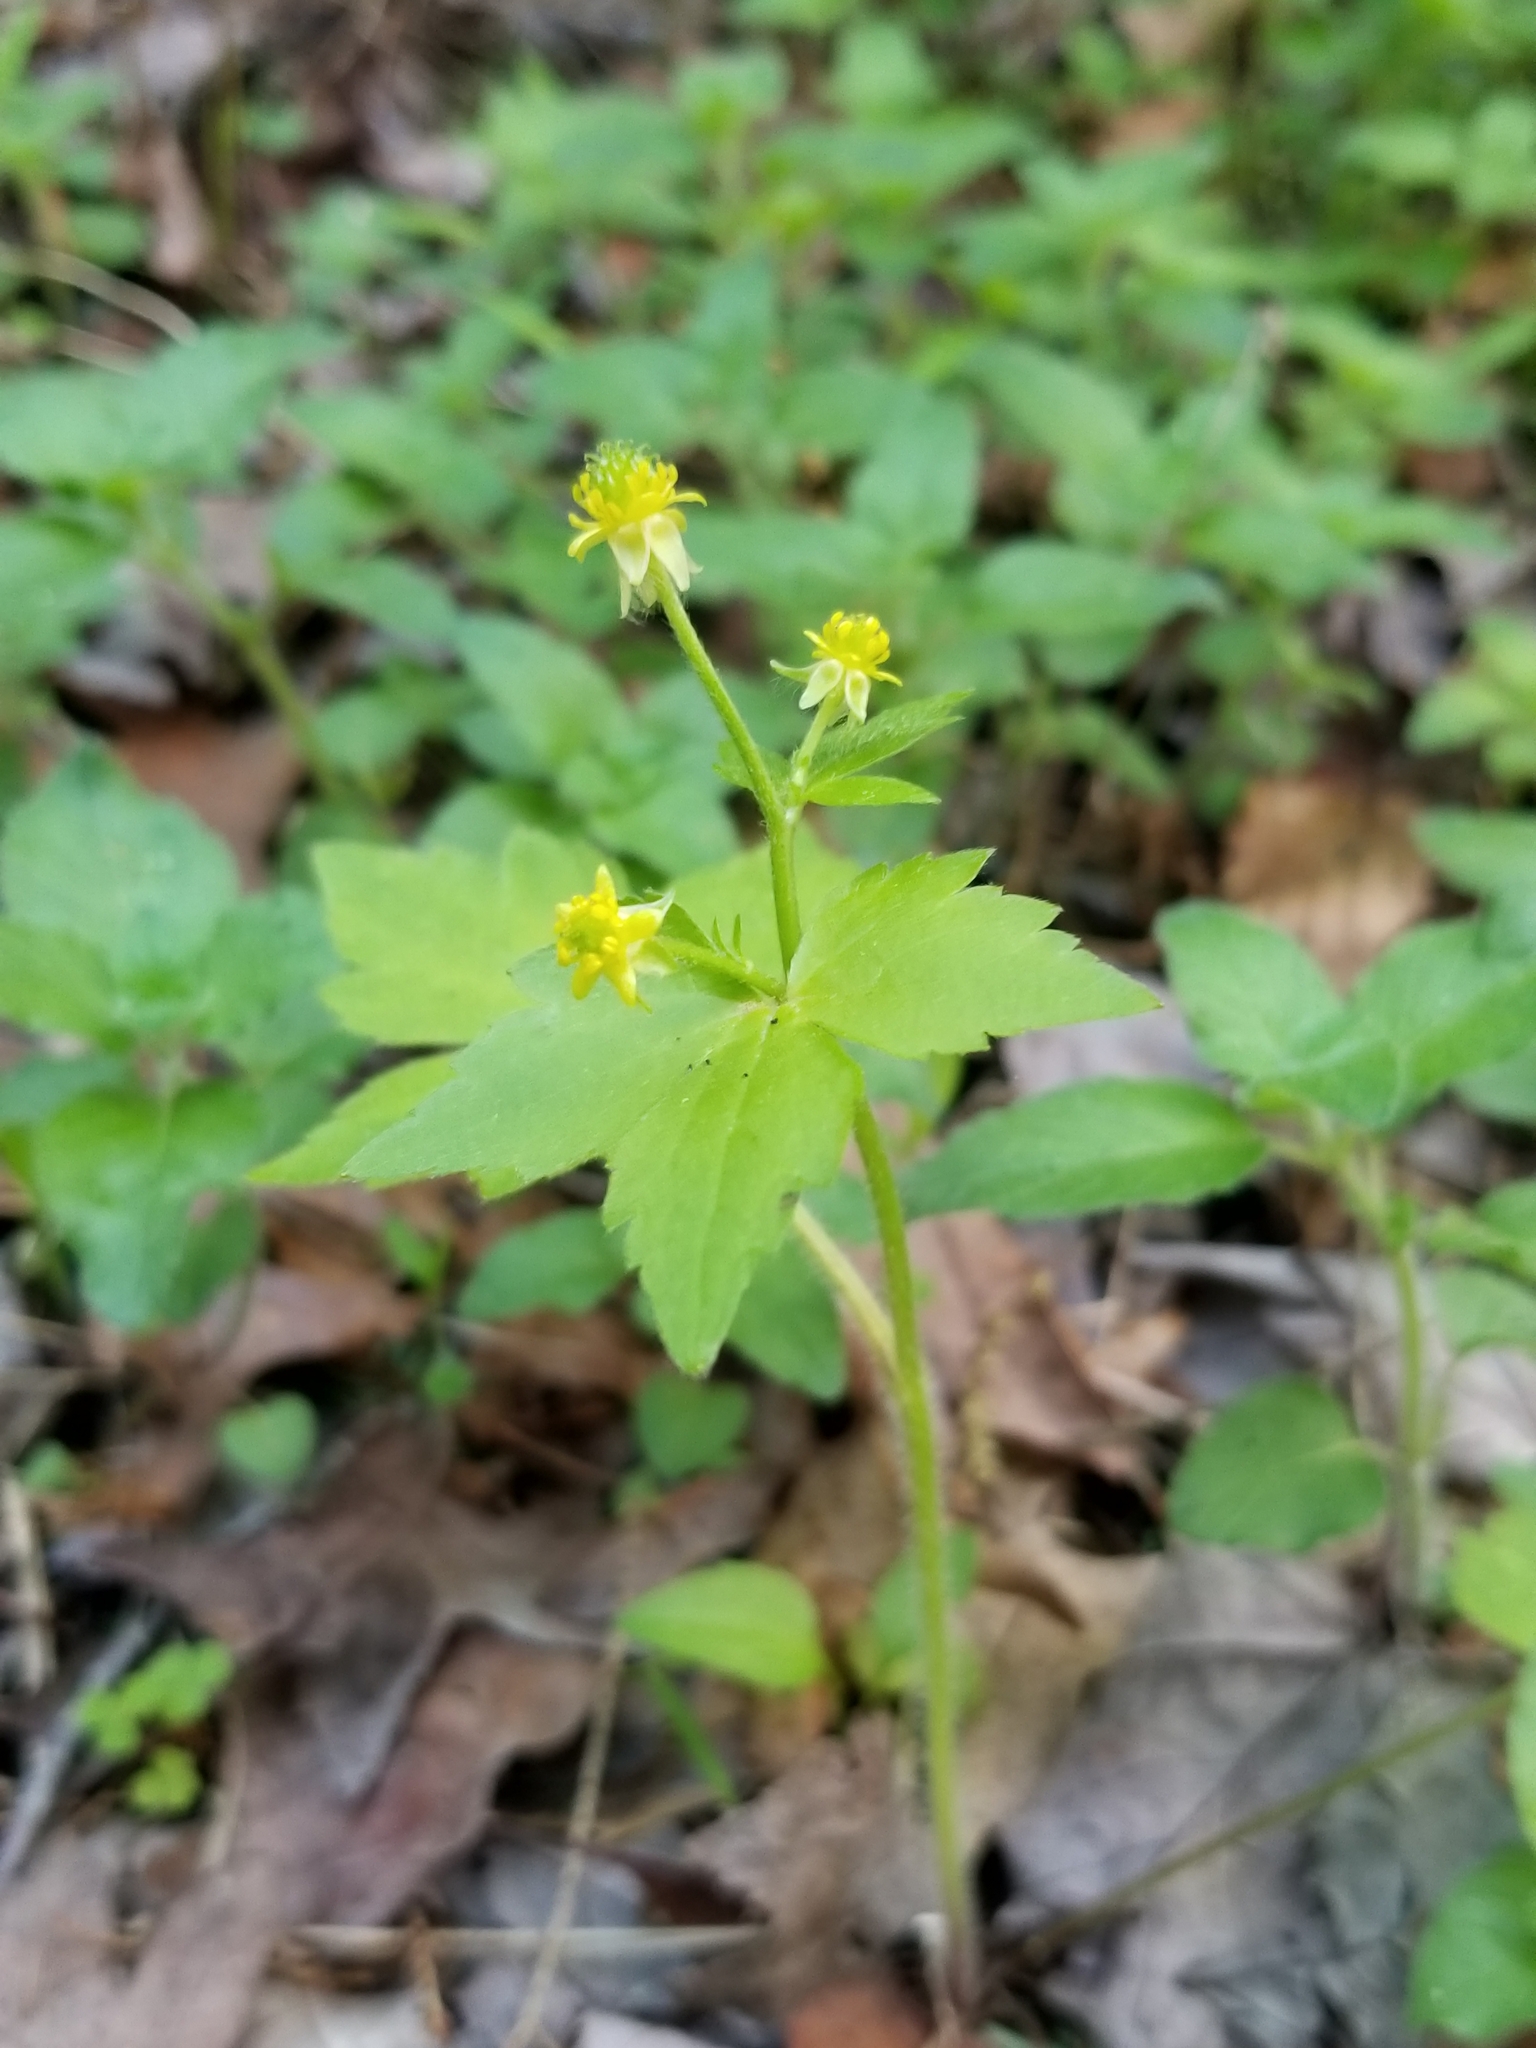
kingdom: Plantae
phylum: Tracheophyta
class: Magnoliopsida
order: Ranunculales
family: Ranunculaceae
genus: Ranunculus
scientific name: Ranunculus recurvatus
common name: Blisterwort
